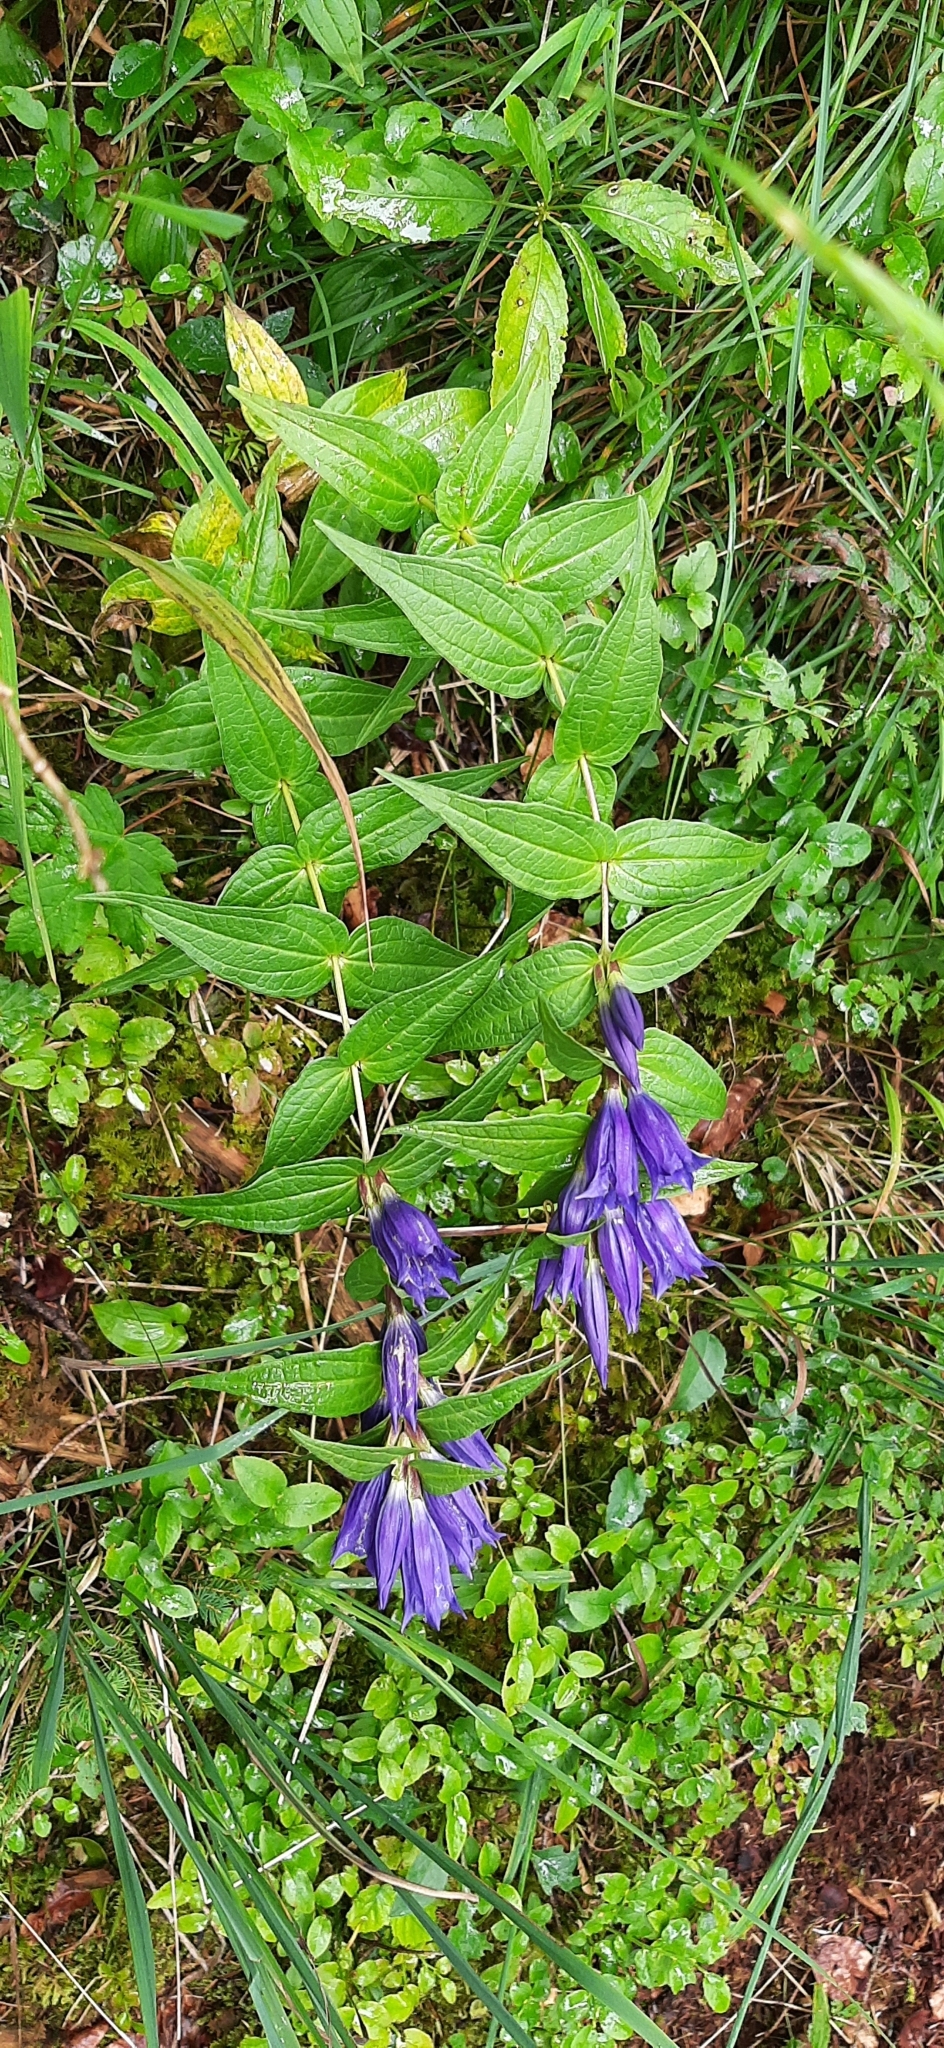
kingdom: Plantae
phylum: Tracheophyta
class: Magnoliopsida
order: Gentianales
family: Gentianaceae
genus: Gentiana
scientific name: Gentiana asclepiadea
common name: Willow gentian
